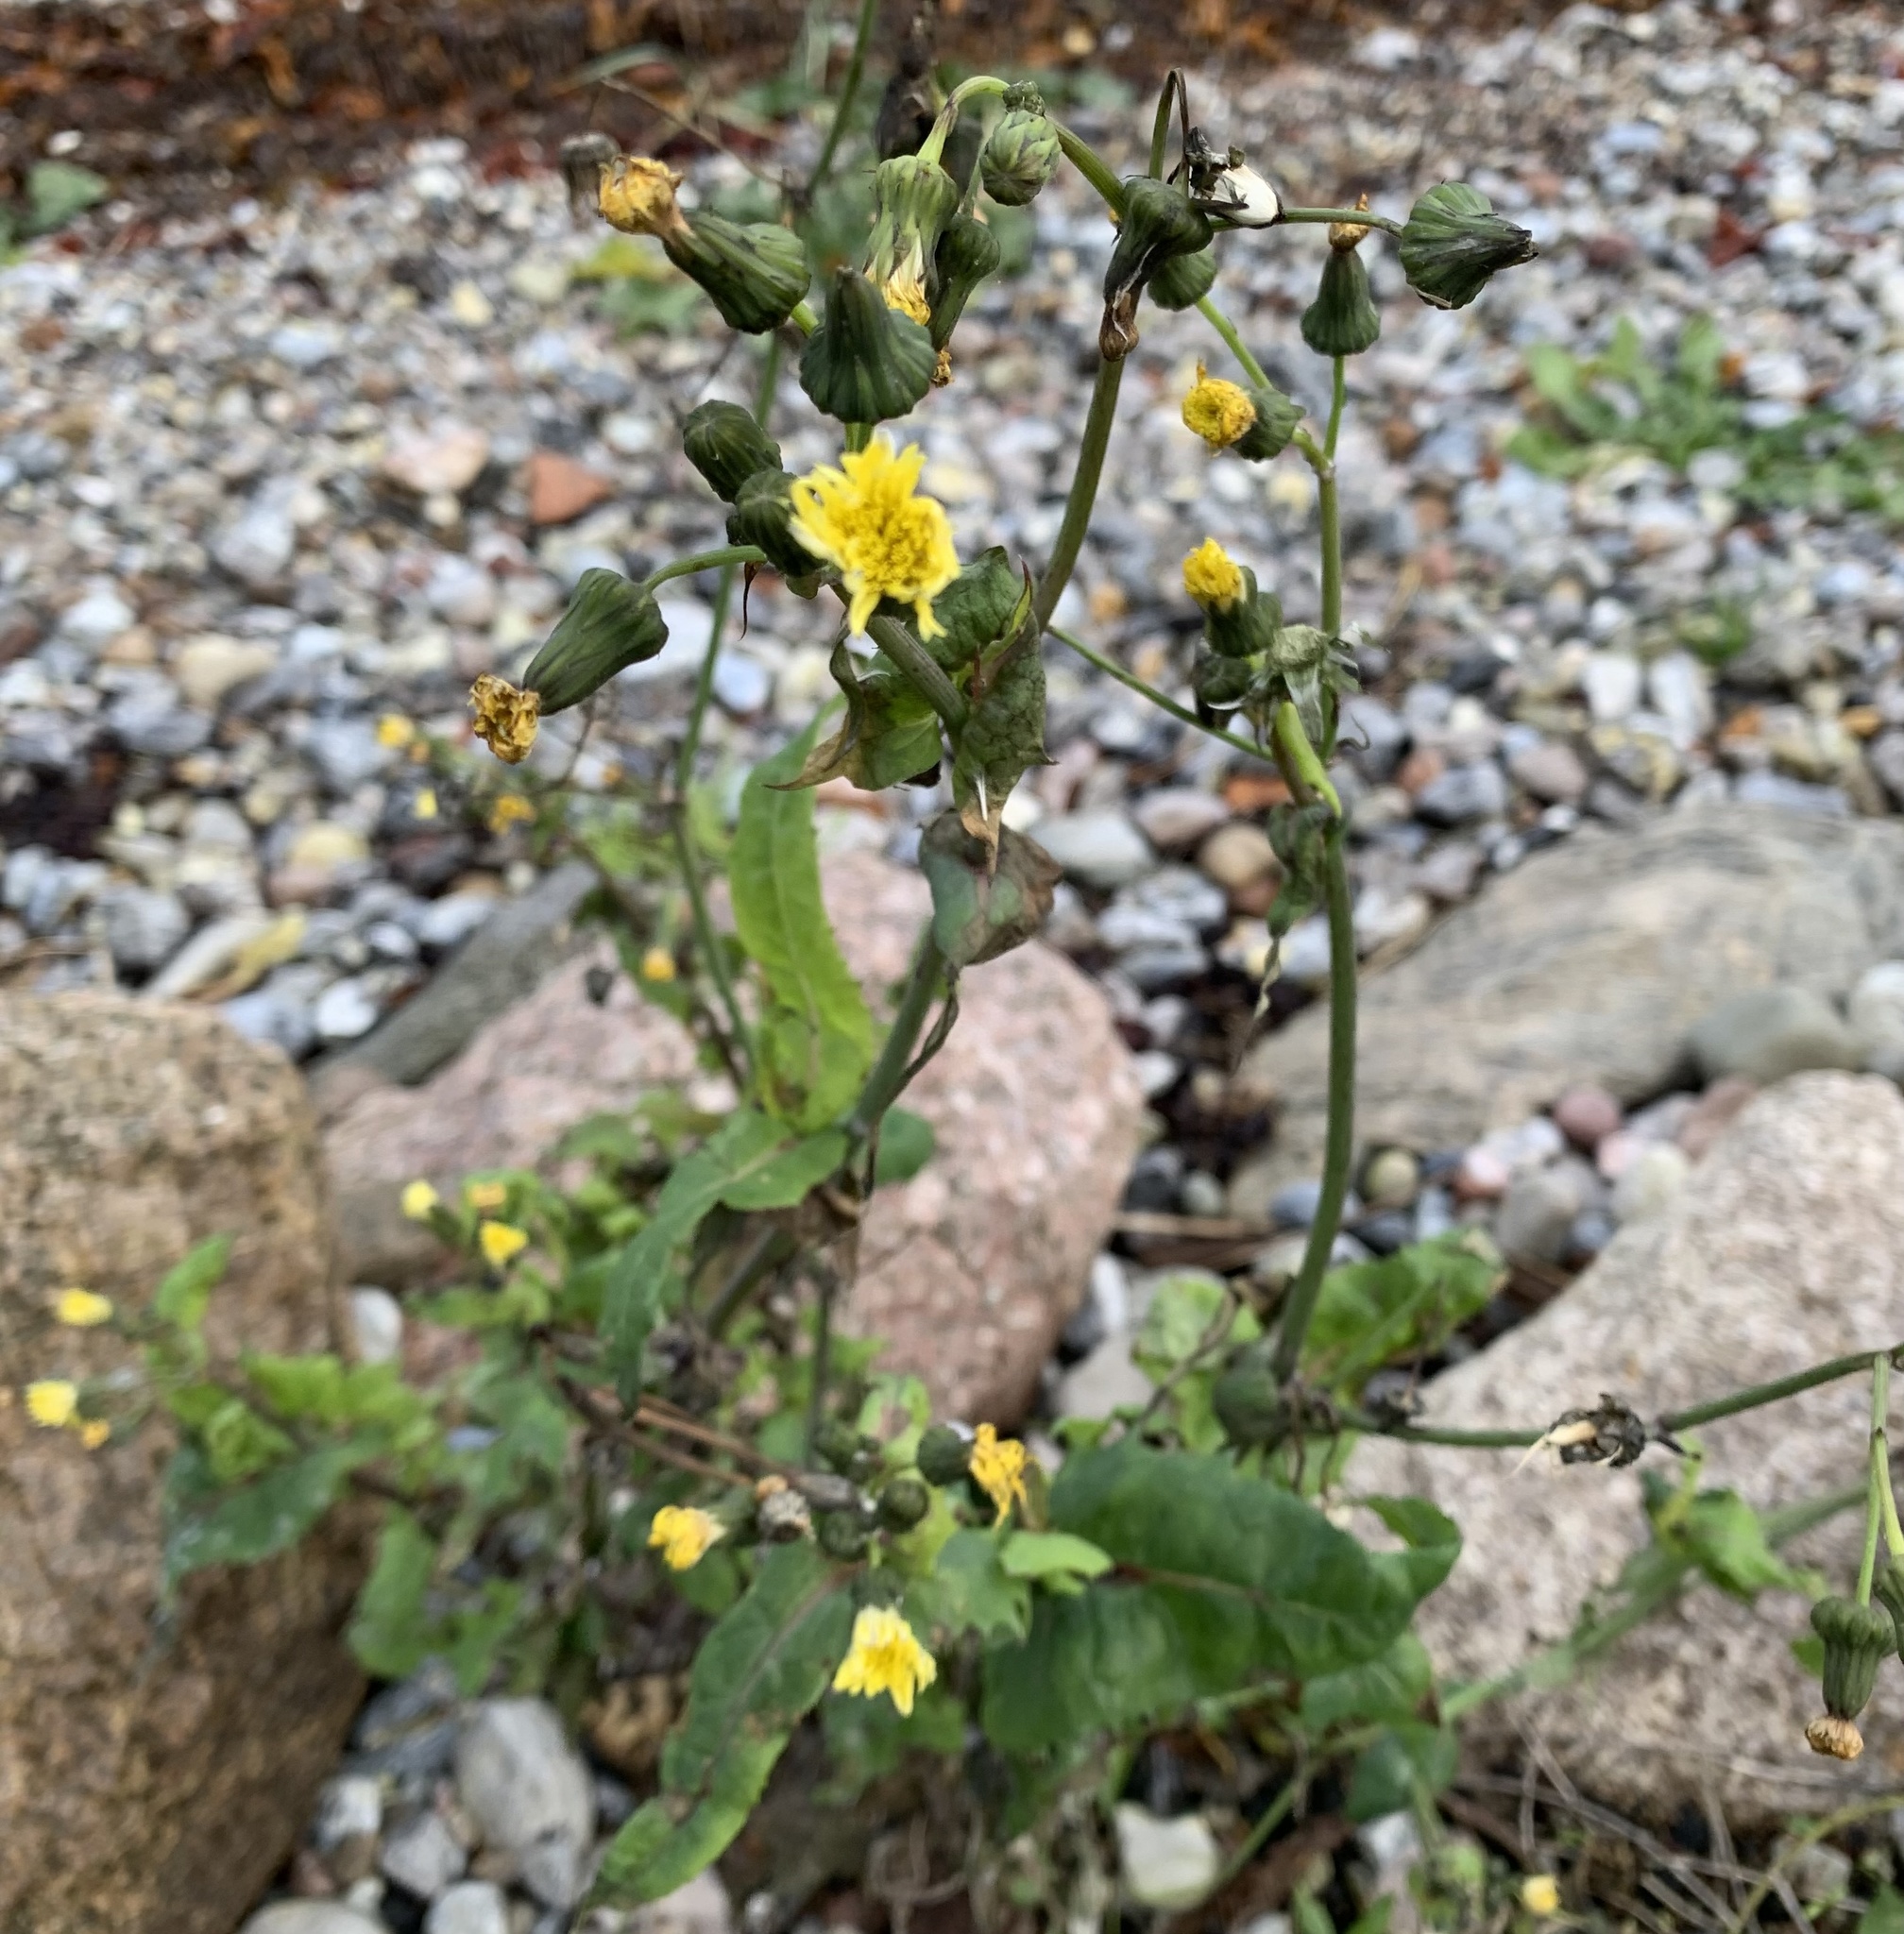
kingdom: Plantae
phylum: Tracheophyta
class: Magnoliopsida
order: Asterales
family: Asteraceae
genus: Sonchus
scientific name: Sonchus oleraceus
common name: Common sowthistle
